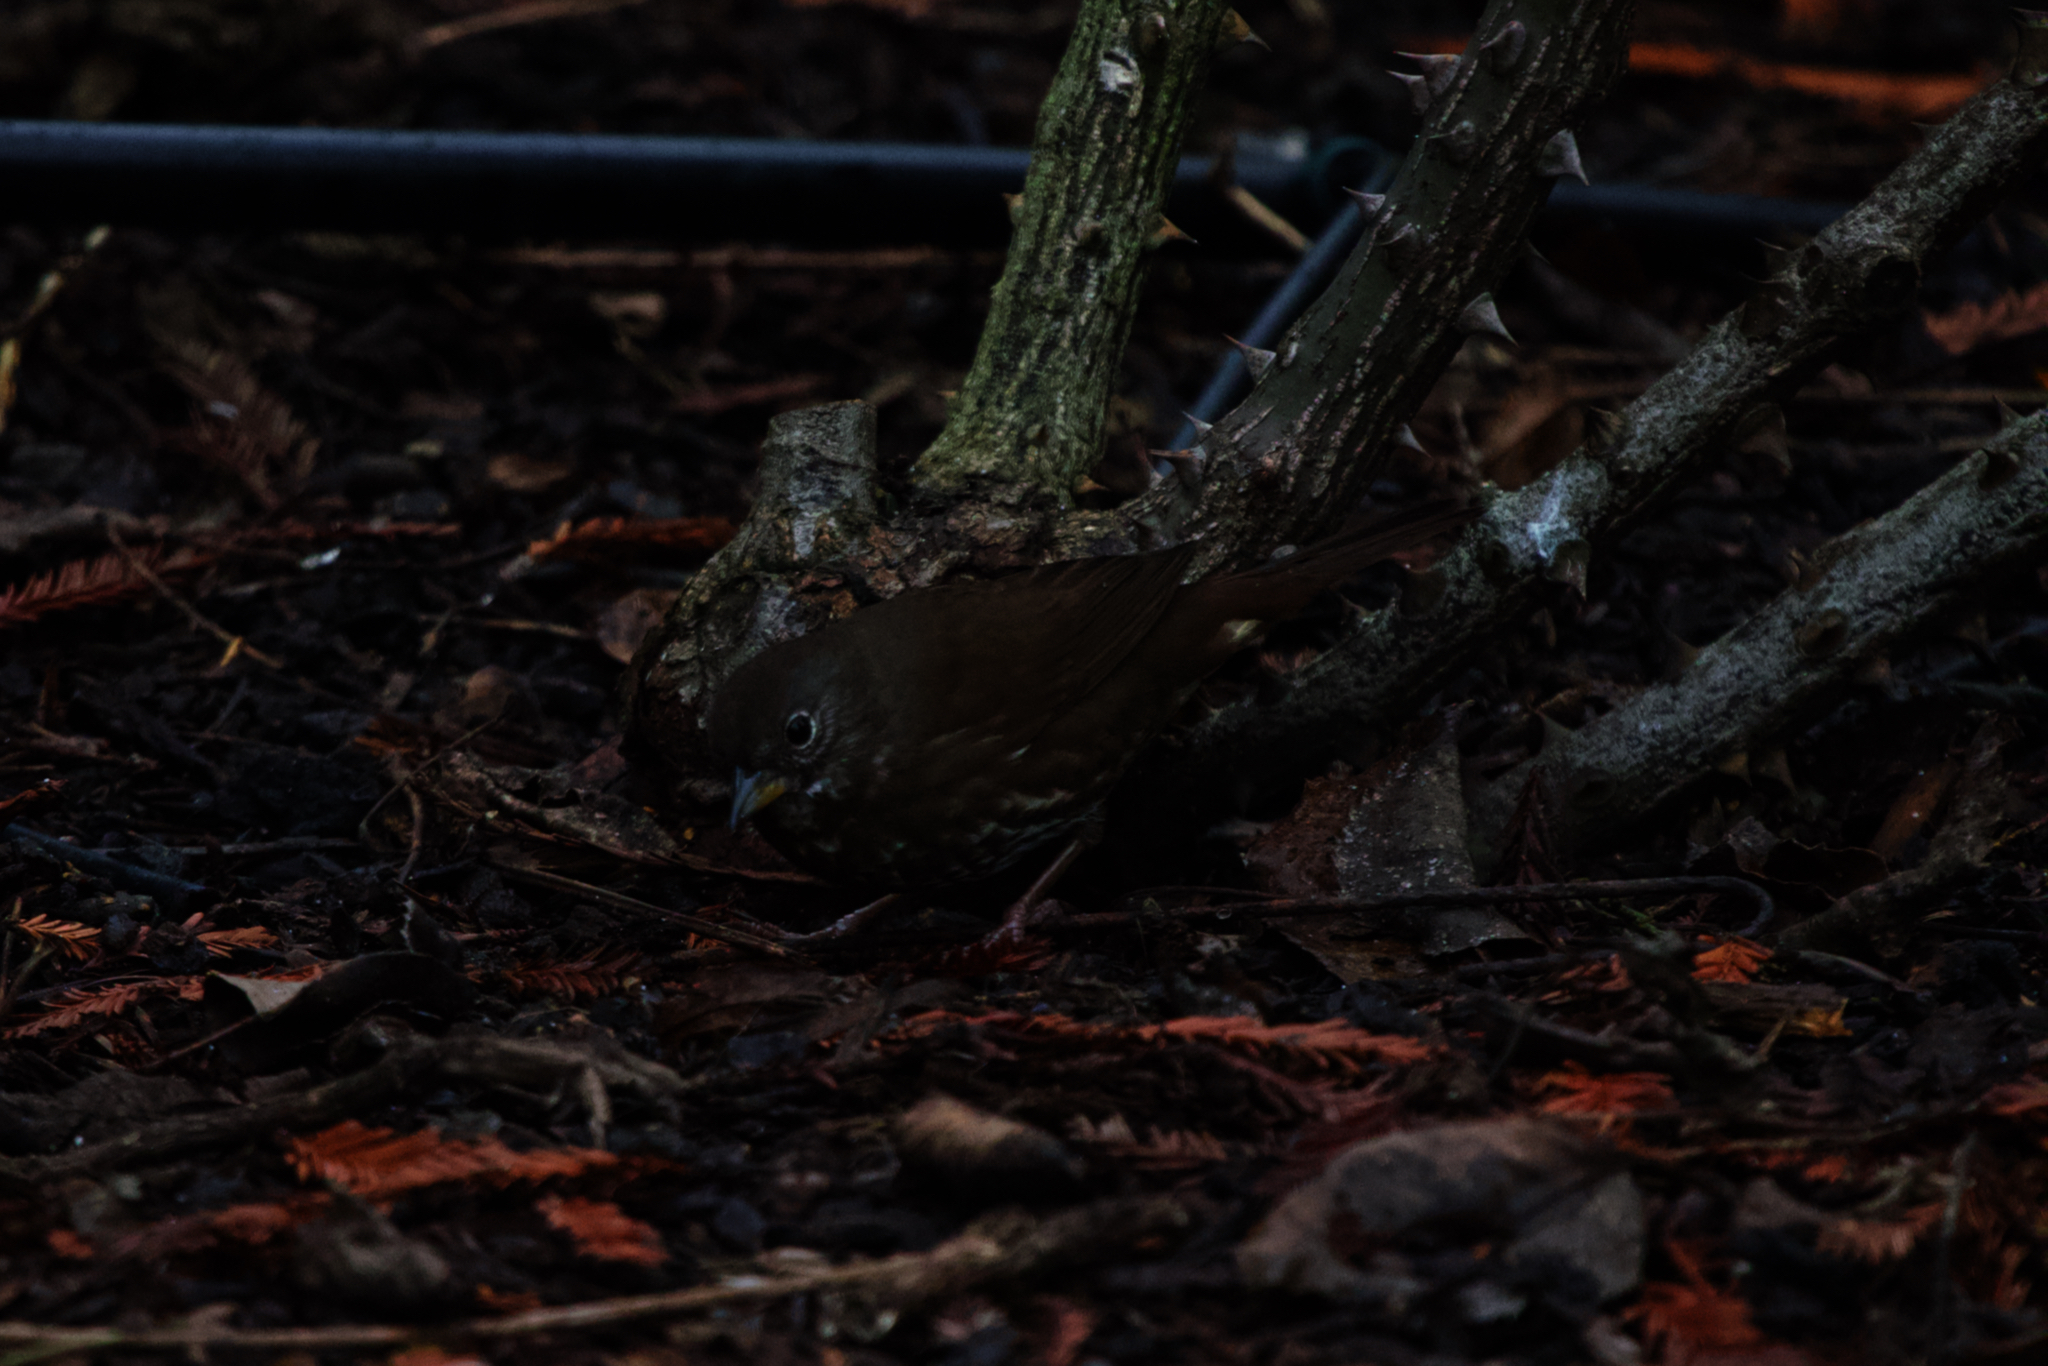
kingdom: Animalia
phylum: Chordata
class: Aves
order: Passeriformes
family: Passerellidae
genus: Passerella
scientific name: Passerella iliaca
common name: Fox sparrow
